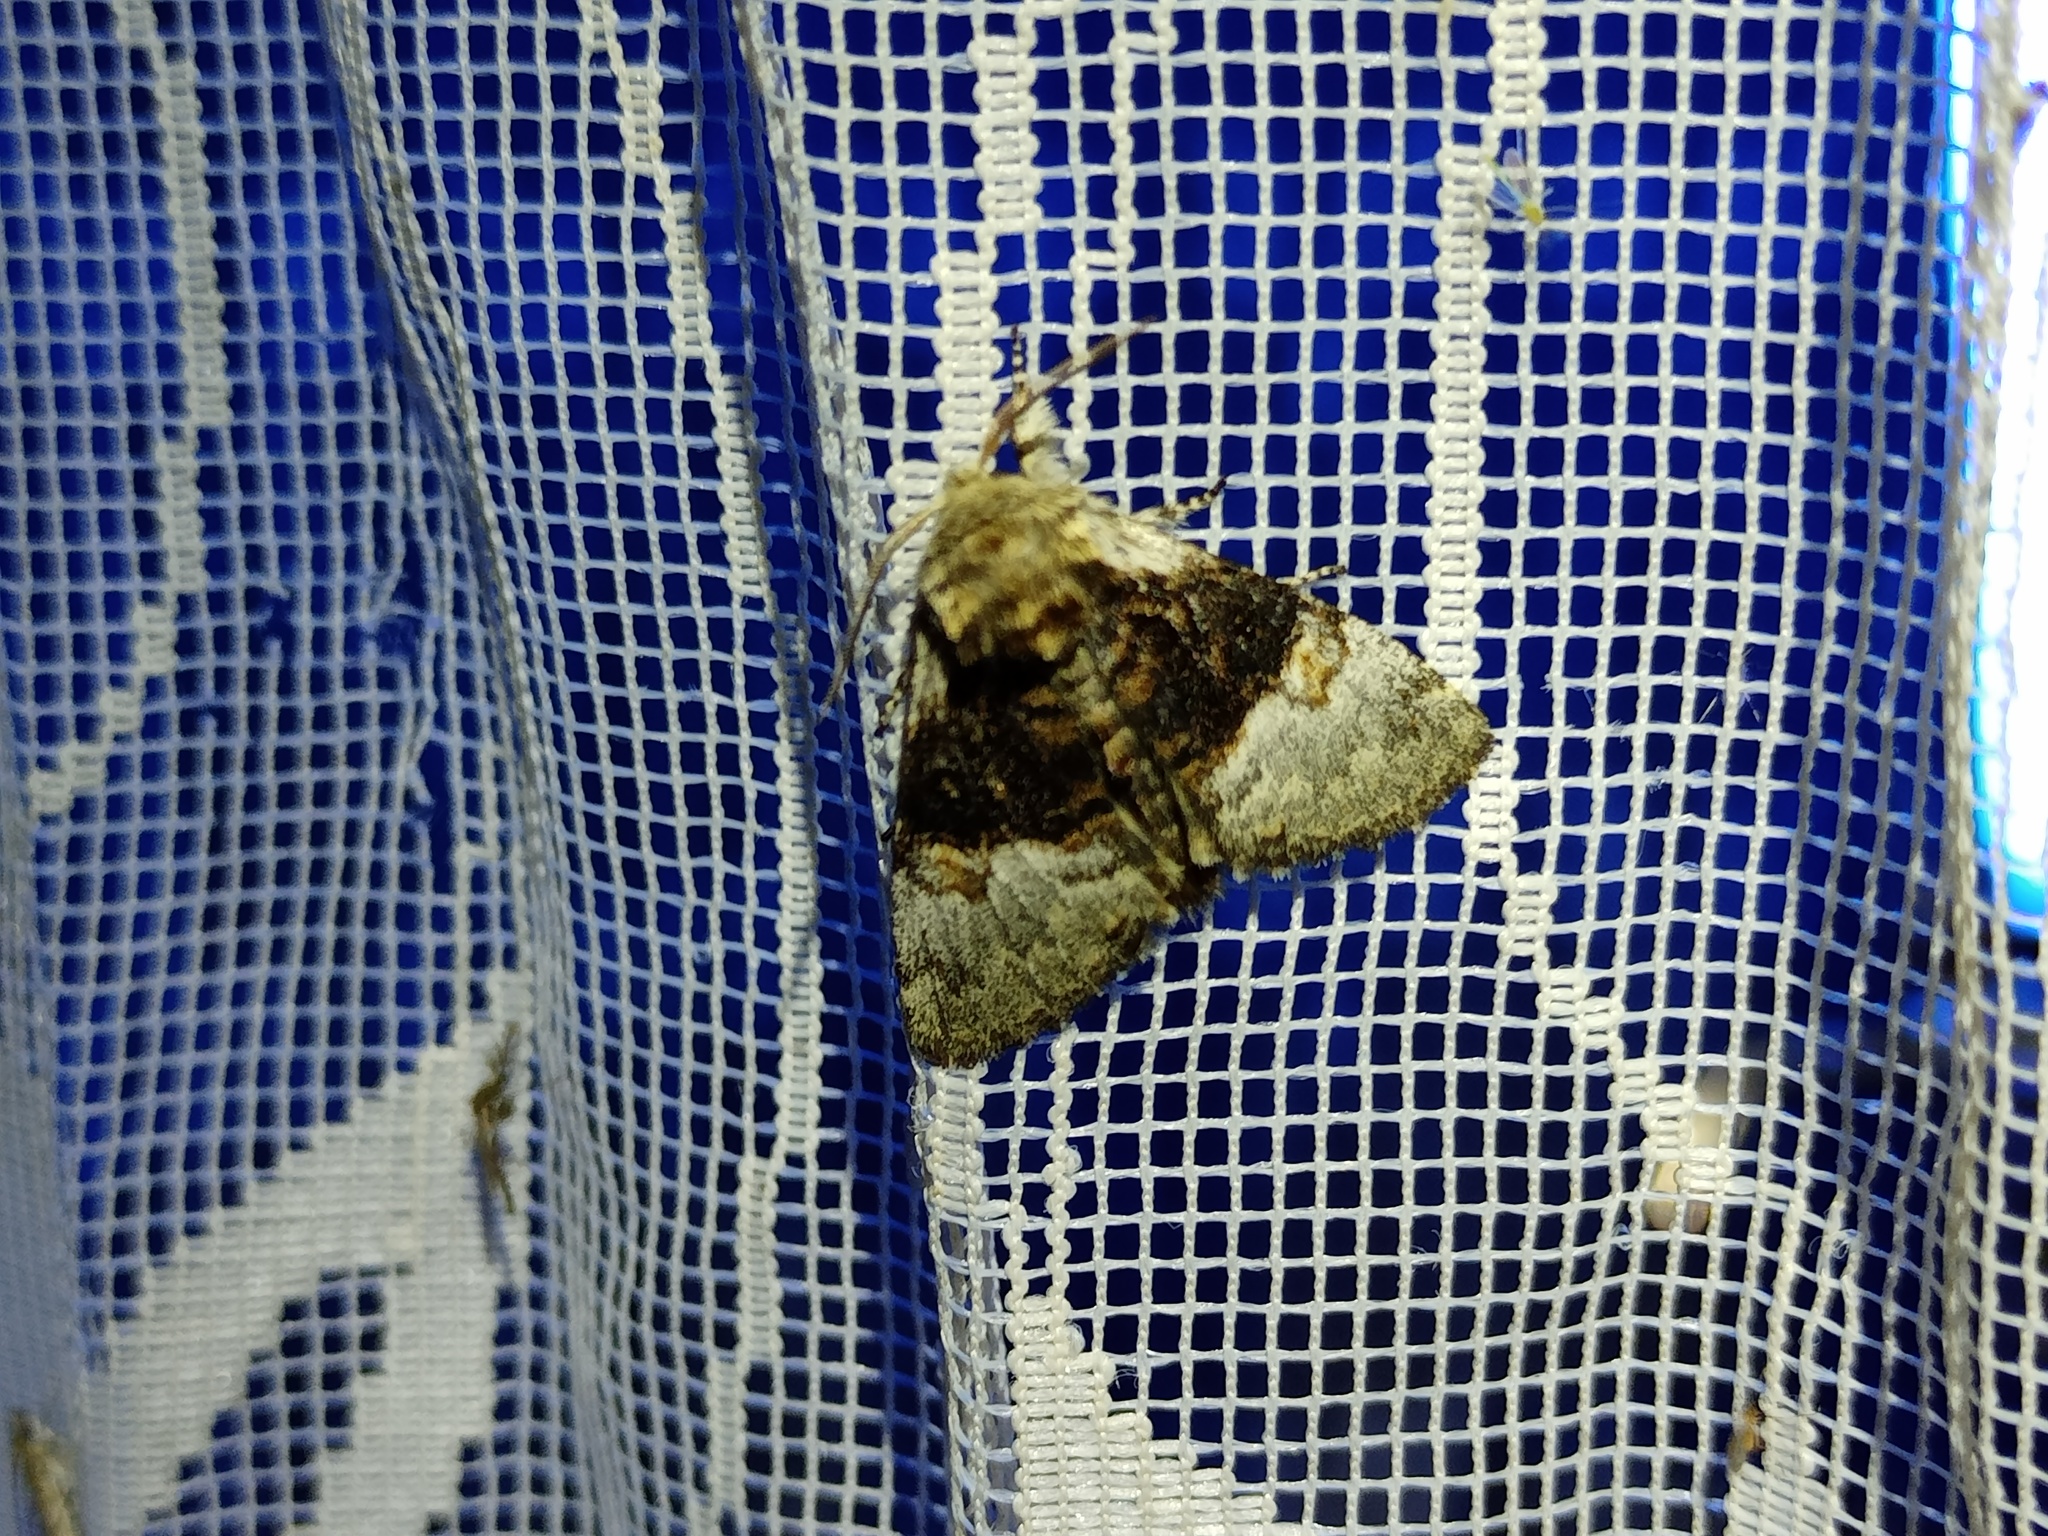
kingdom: Animalia
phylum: Arthropoda
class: Insecta
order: Lepidoptera
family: Noctuidae
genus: Colocasia
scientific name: Colocasia coryli
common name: Nut-tree tussock
